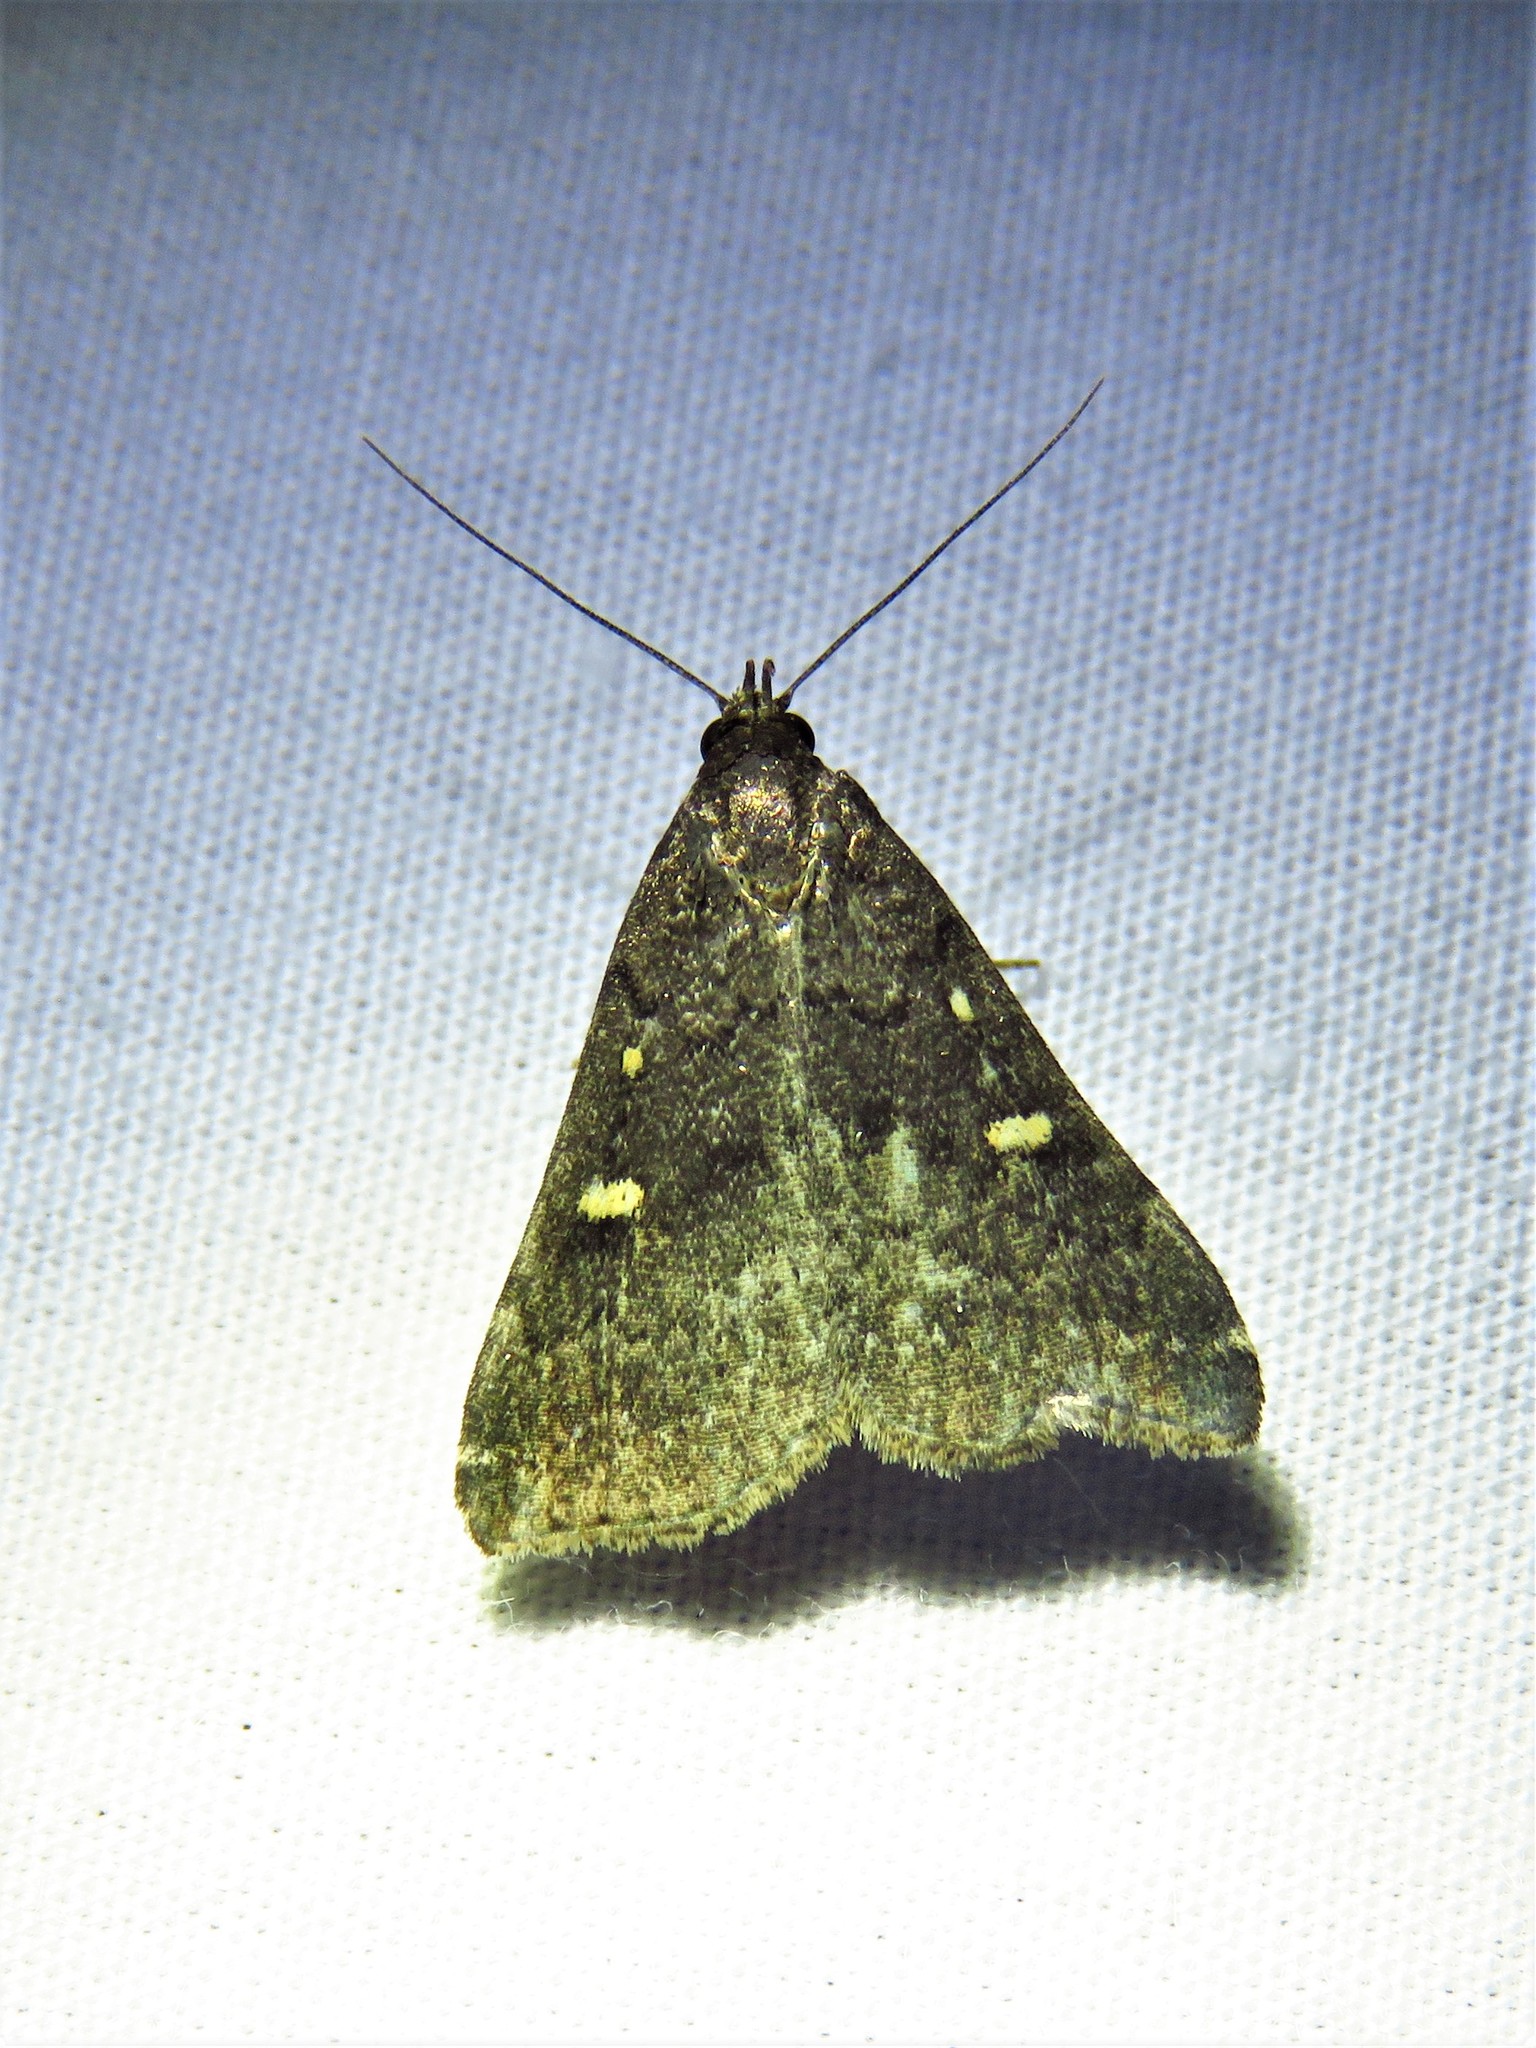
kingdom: Animalia
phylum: Arthropoda
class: Insecta
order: Lepidoptera
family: Erebidae
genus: Tetanolita
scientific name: Tetanolita mynesalis
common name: Smoky tetanolita moth
